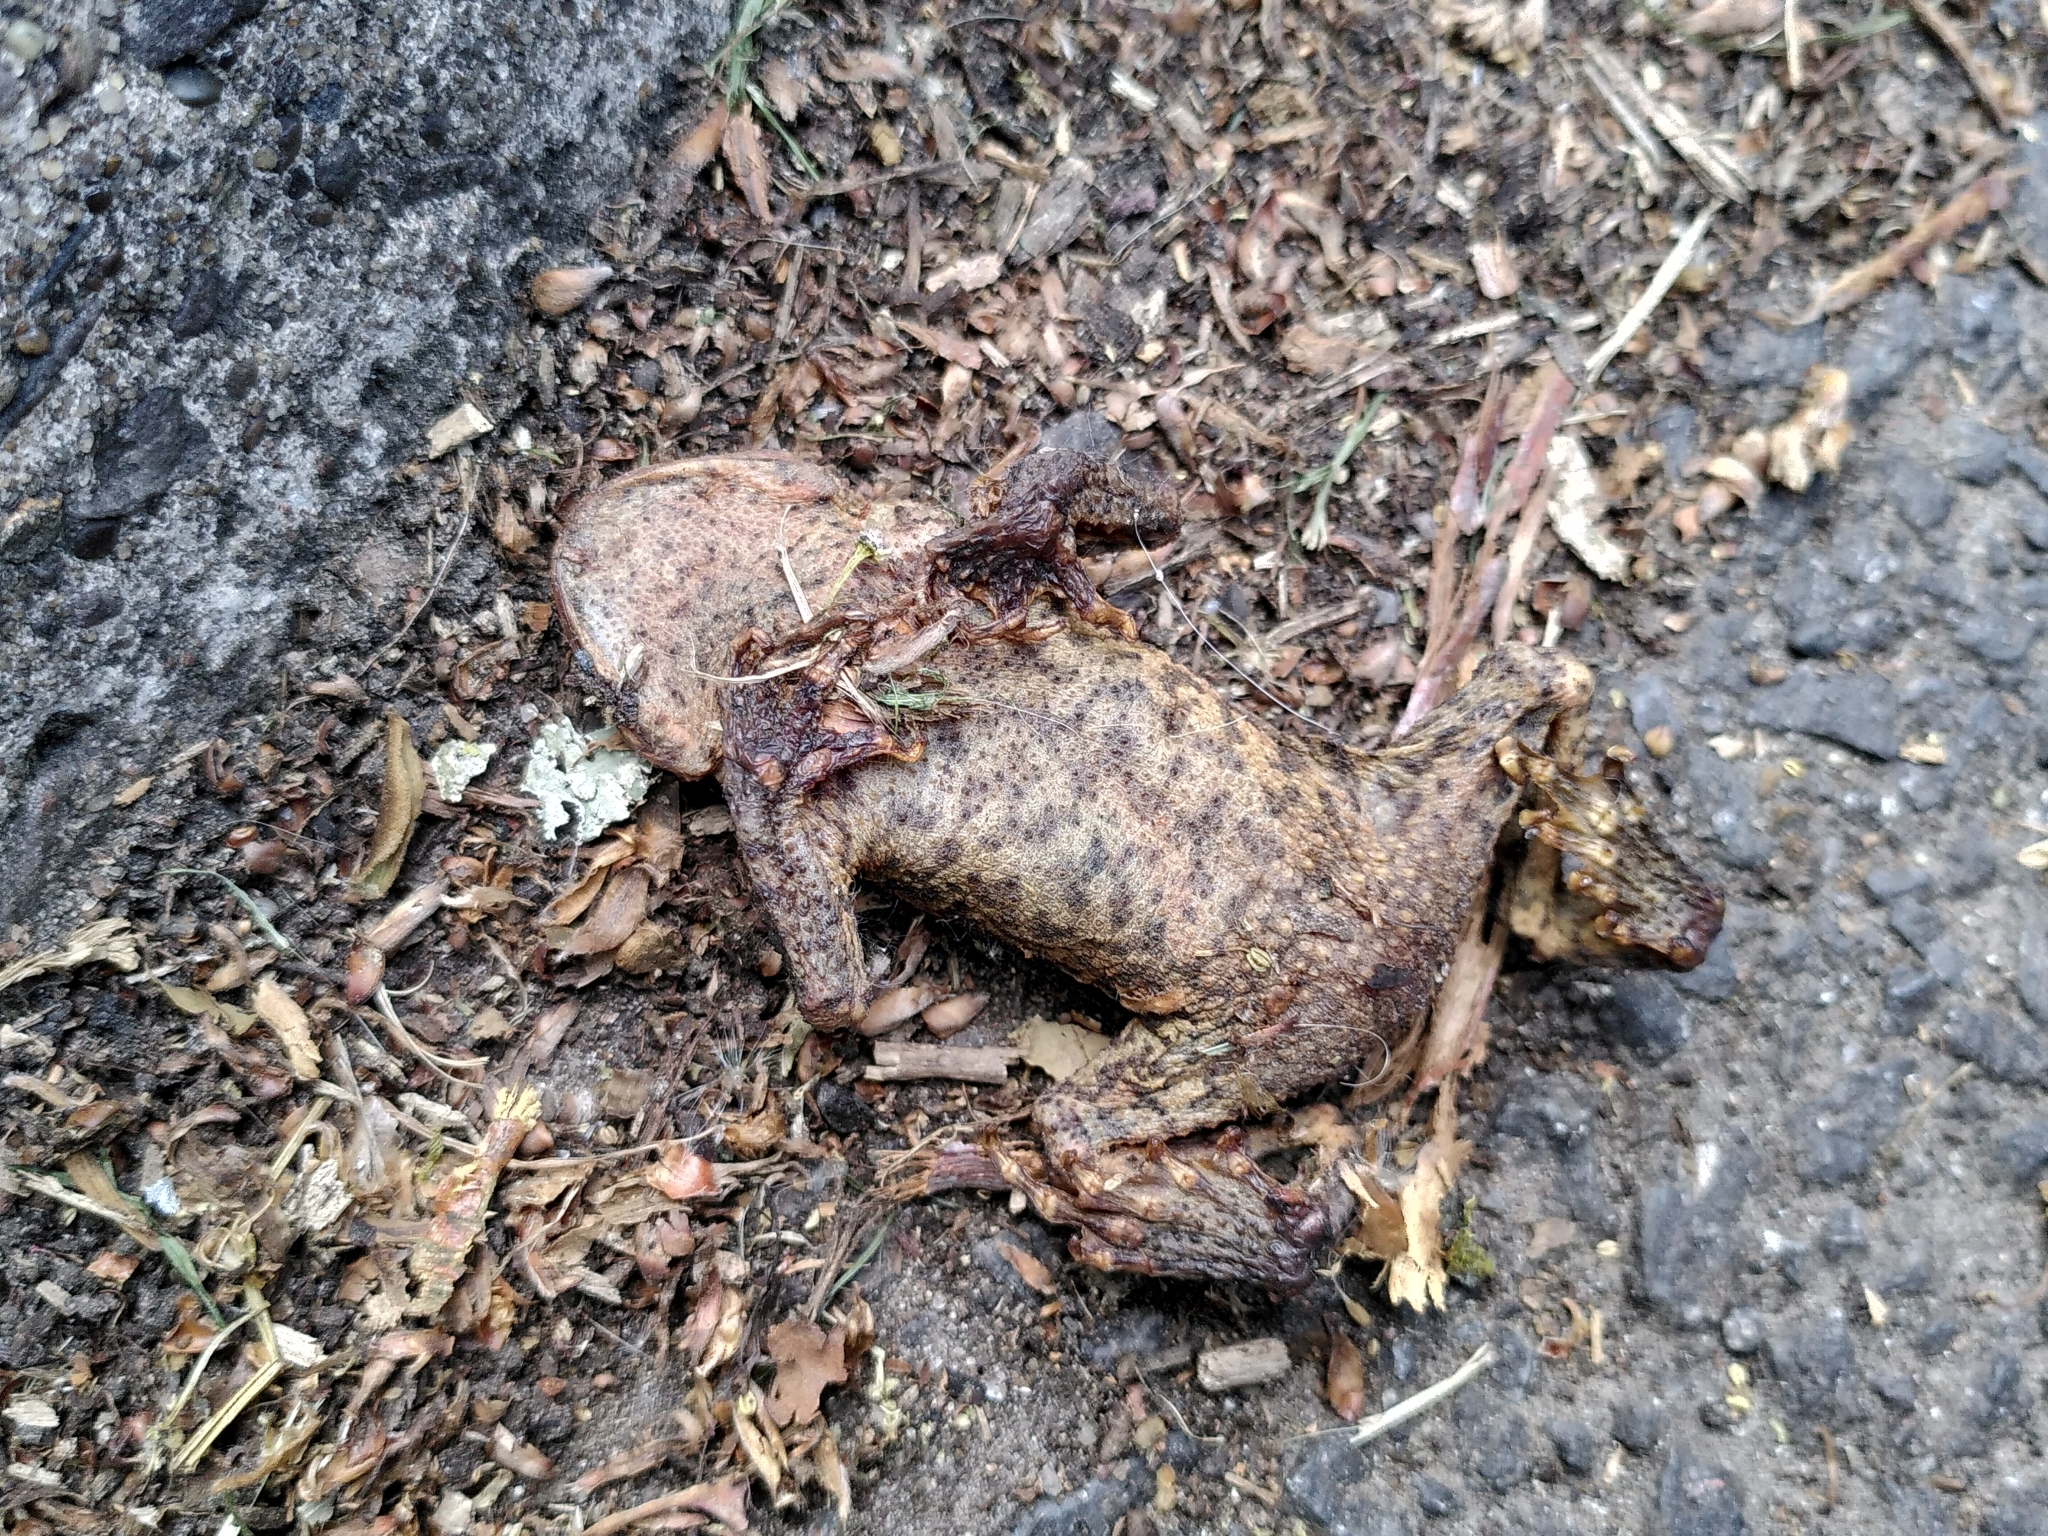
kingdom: Animalia
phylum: Chordata
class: Amphibia
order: Anura
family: Bufonidae
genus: Bufo
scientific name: Bufo bufo
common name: Common toad
